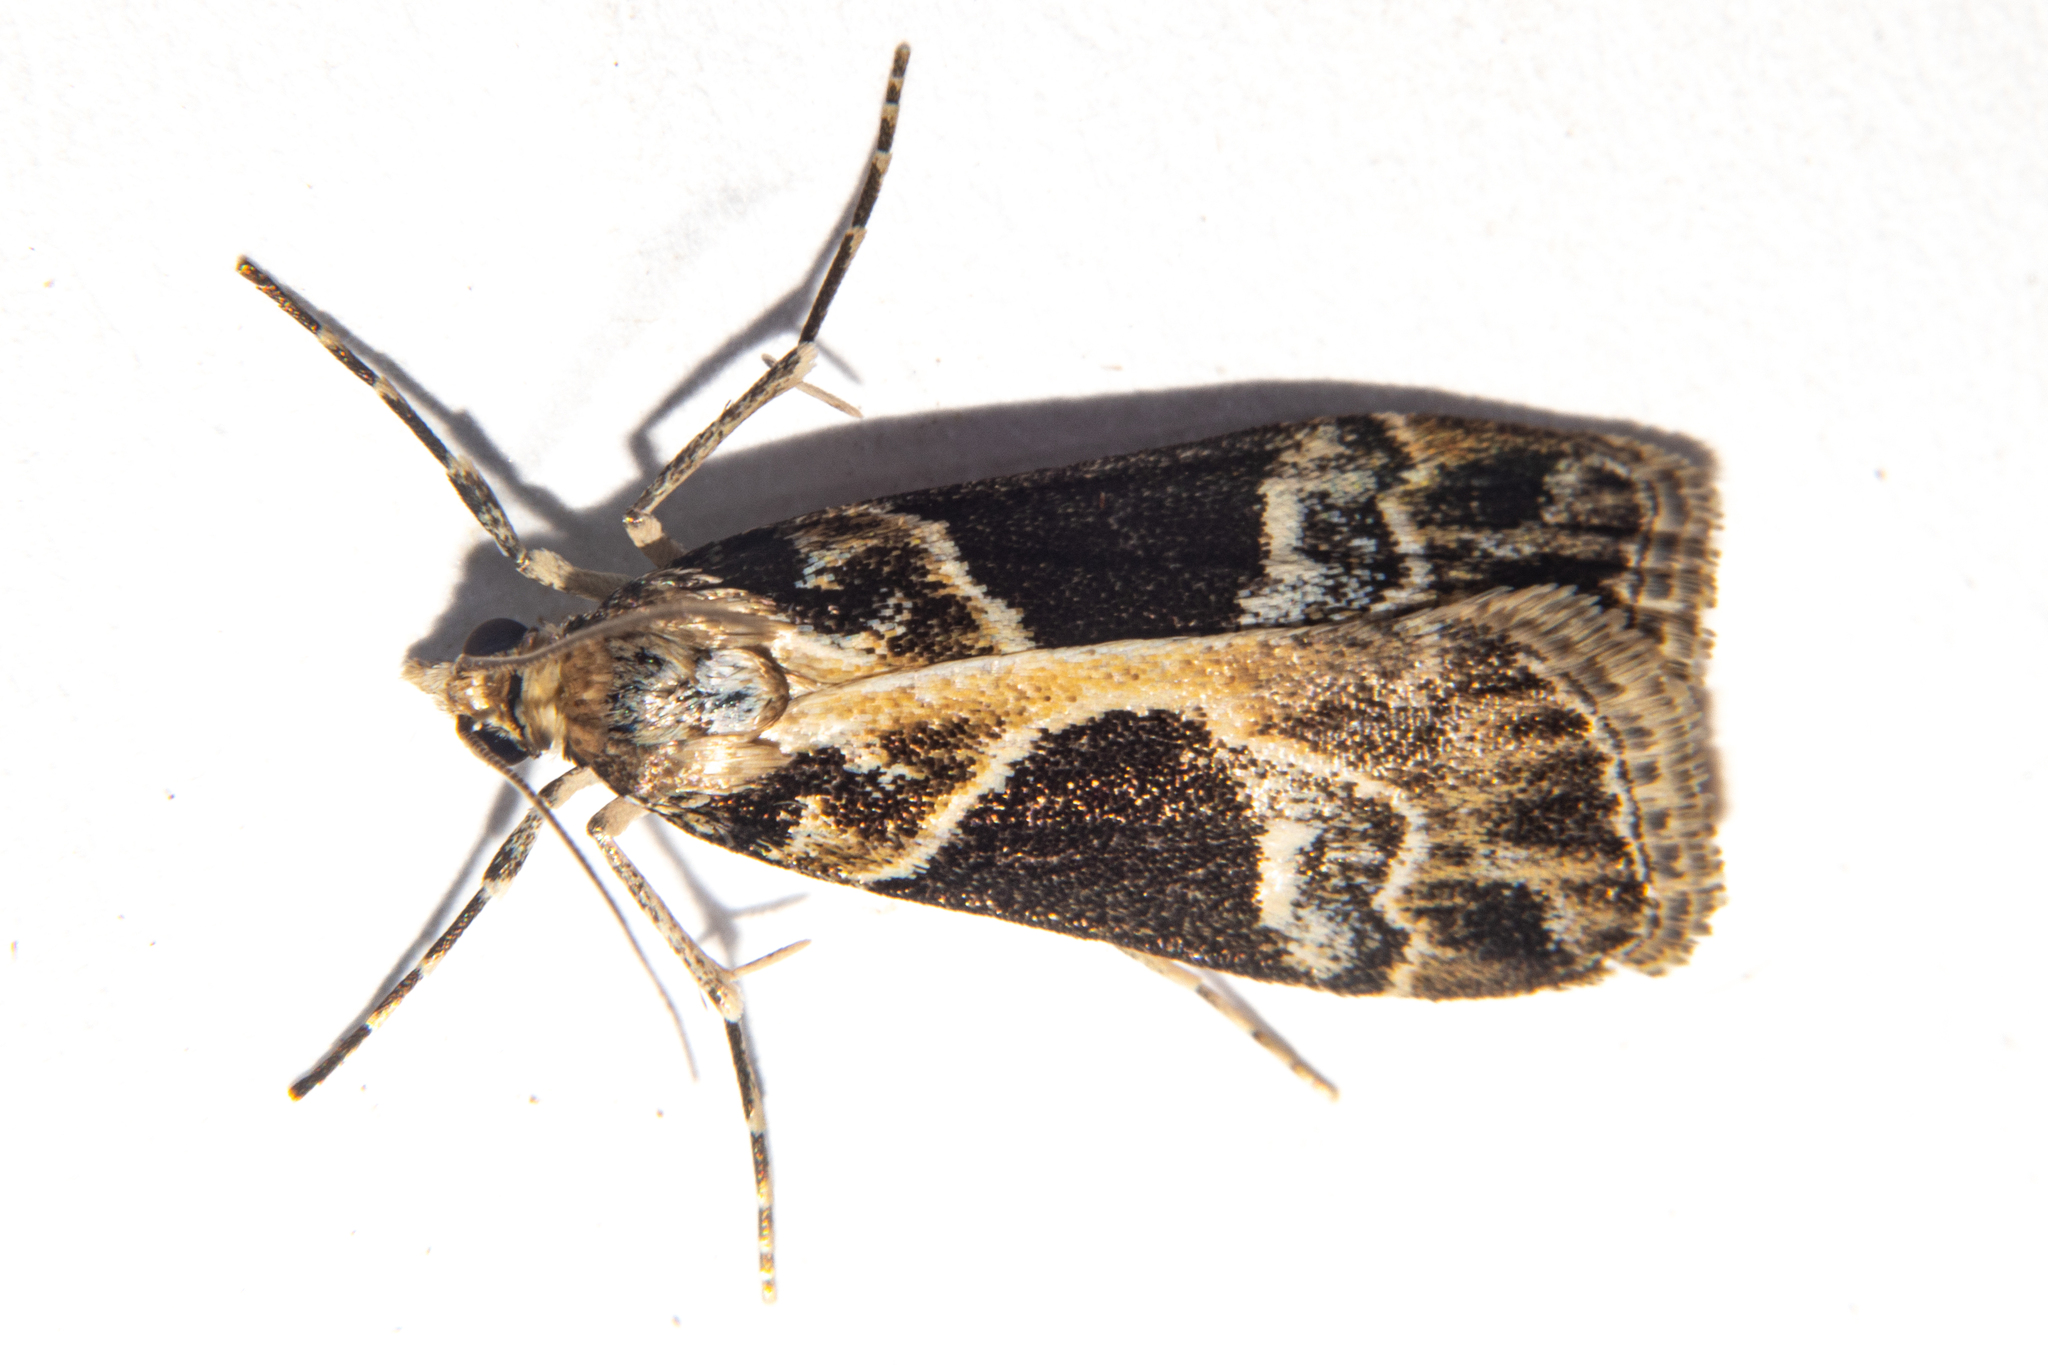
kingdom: Animalia
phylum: Arthropoda
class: Insecta
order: Lepidoptera
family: Crambidae
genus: Eudonia
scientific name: Eudonia melanaegis
